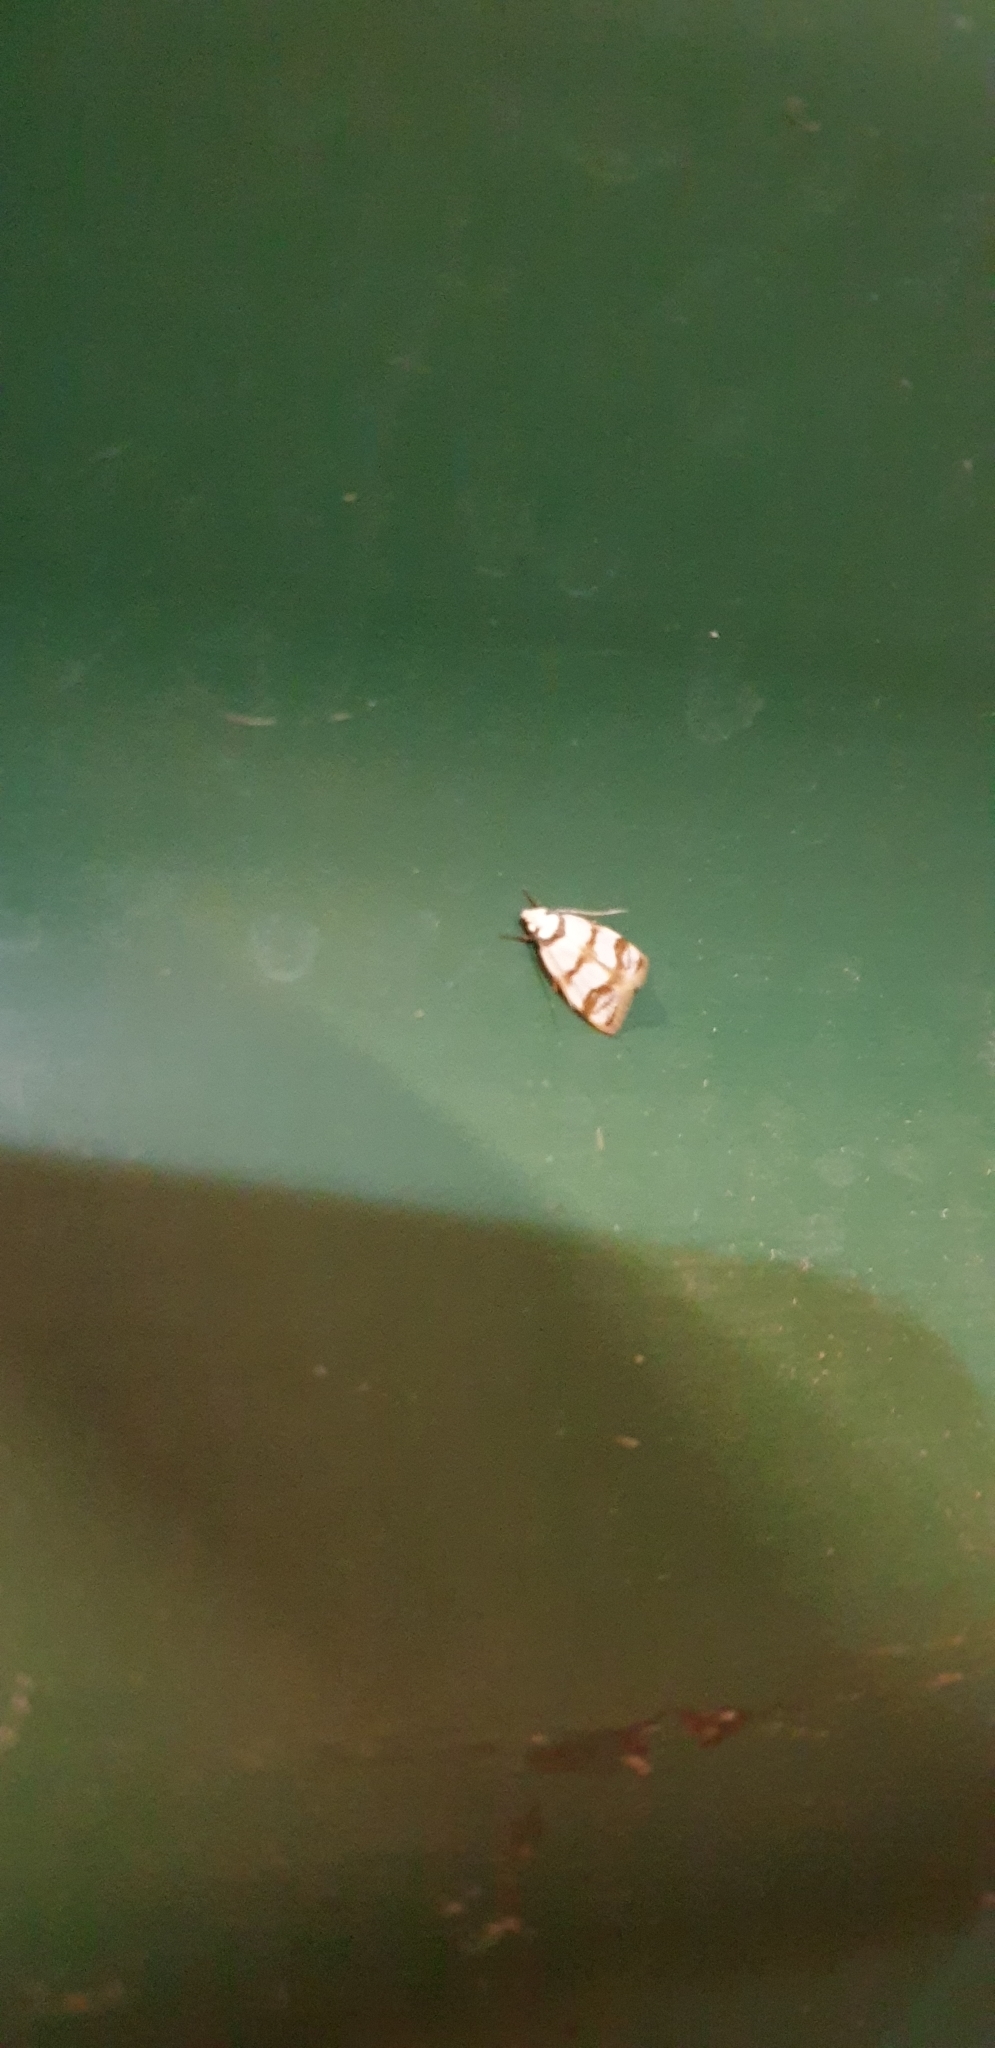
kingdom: Animalia
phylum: Arthropoda
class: Insecta
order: Lepidoptera
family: Oecophoridae
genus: Chezala
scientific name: Chezala brachypepla
